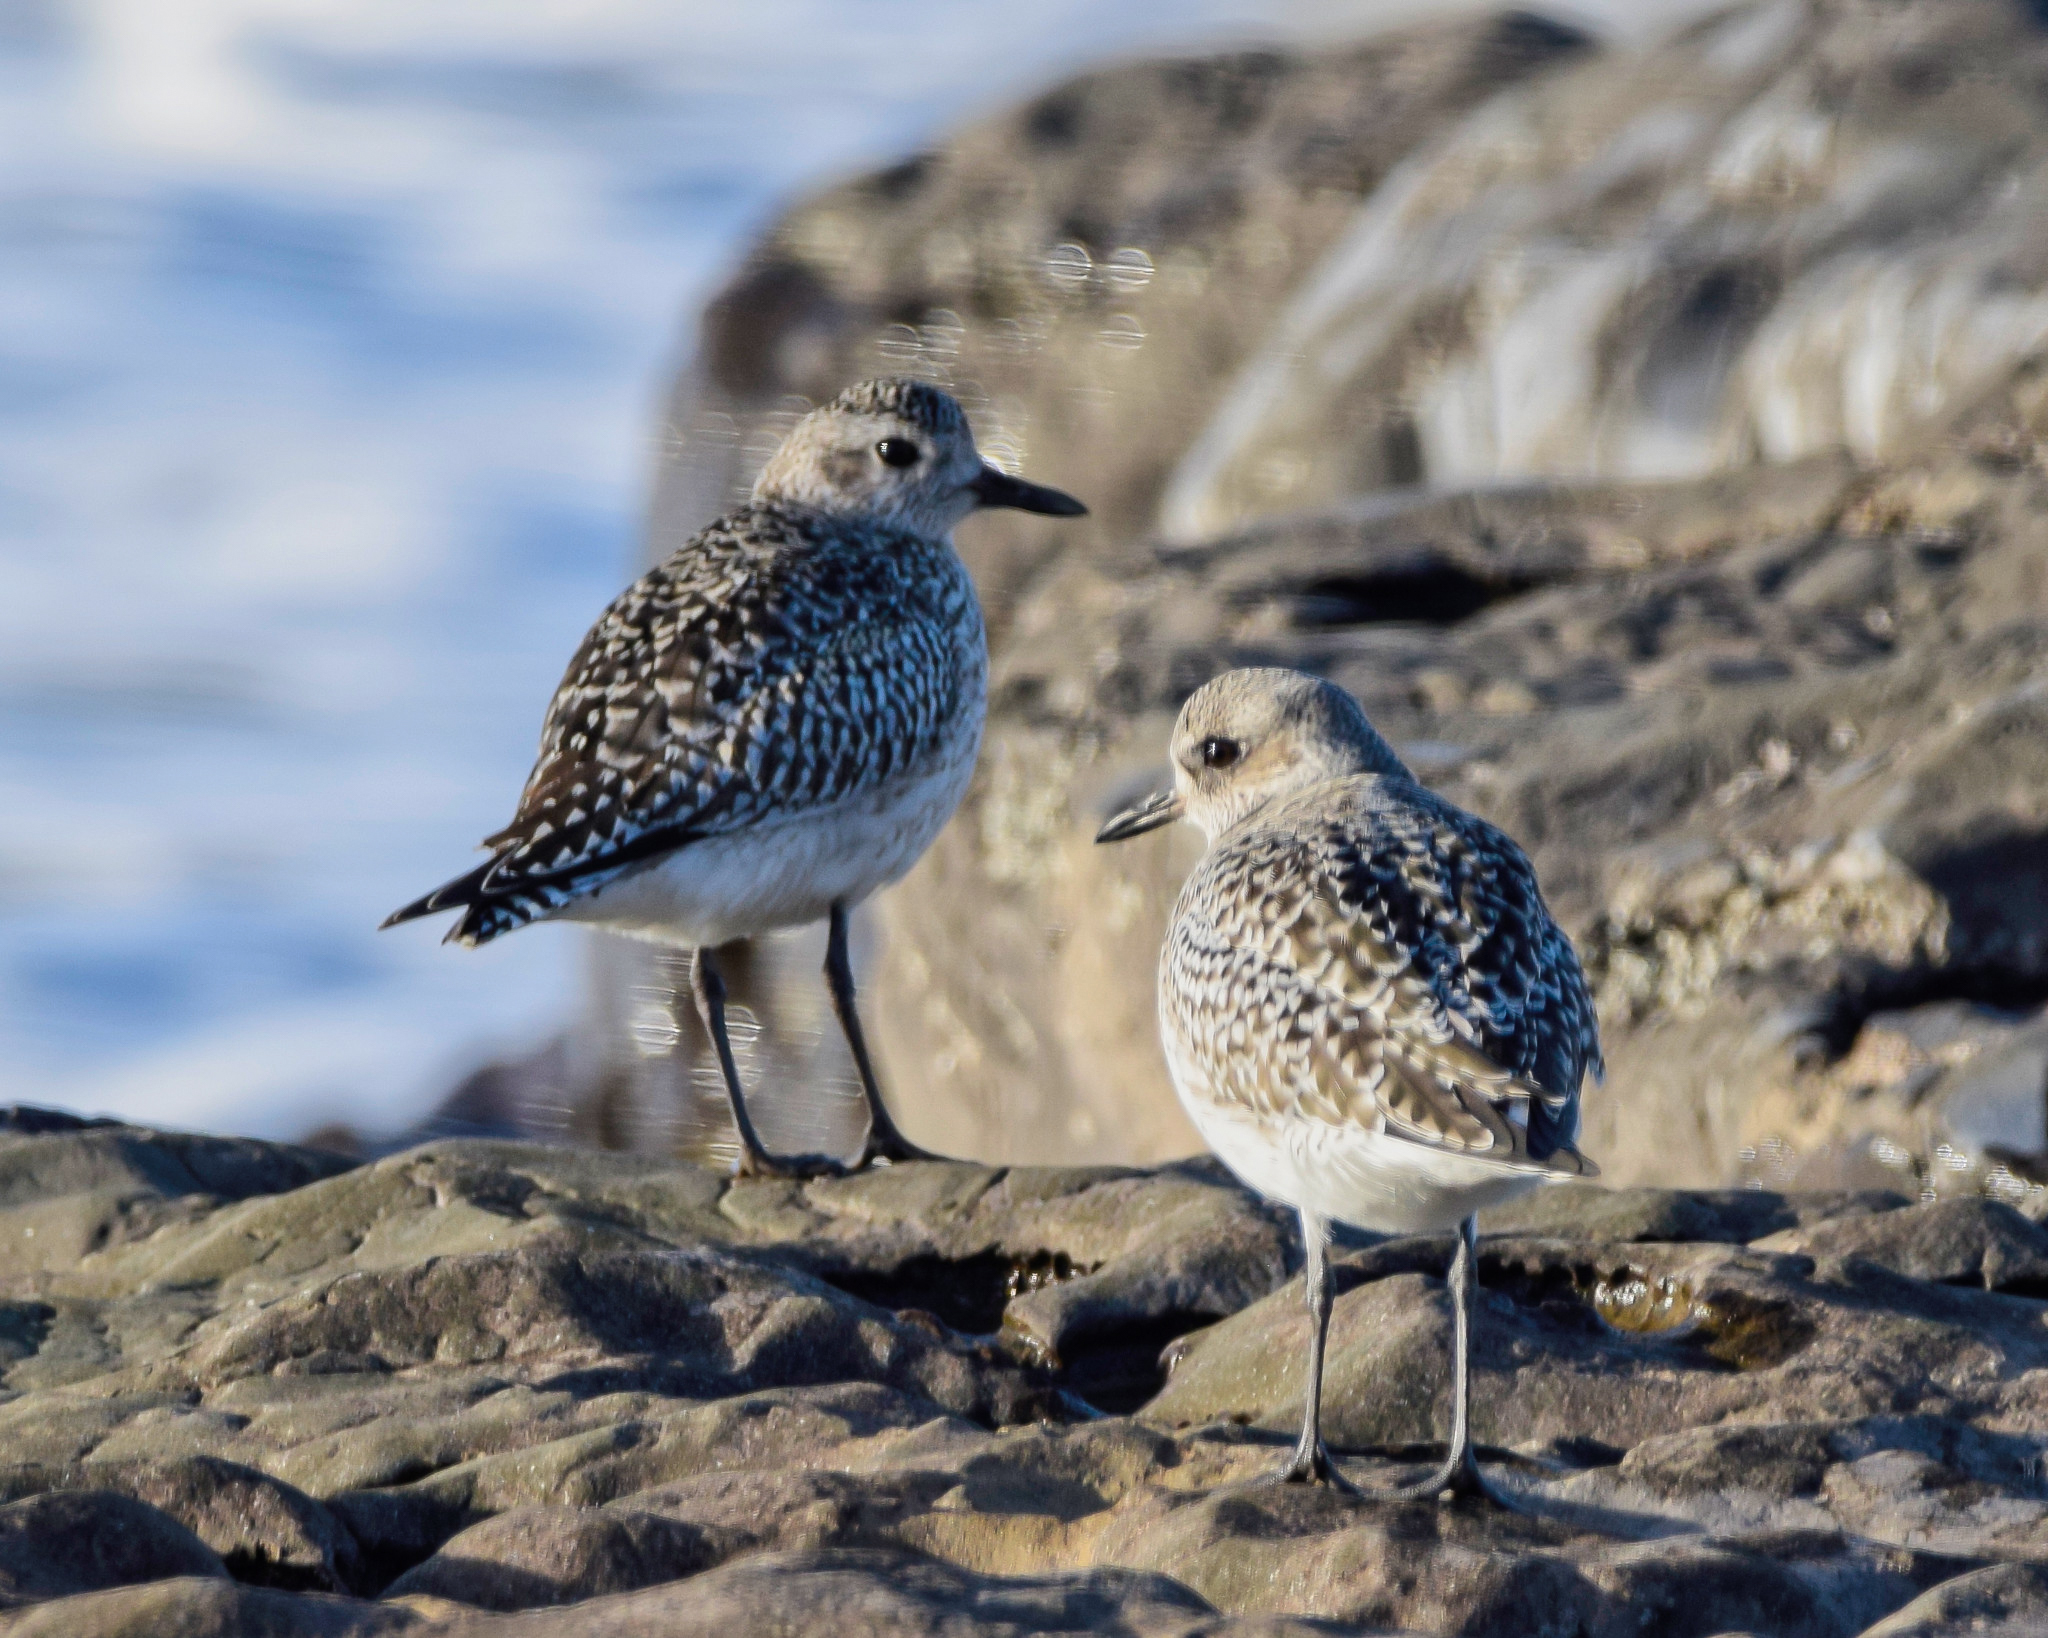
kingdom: Animalia
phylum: Chordata
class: Aves
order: Charadriiformes
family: Charadriidae
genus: Pluvialis
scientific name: Pluvialis squatarola
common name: Grey plover
